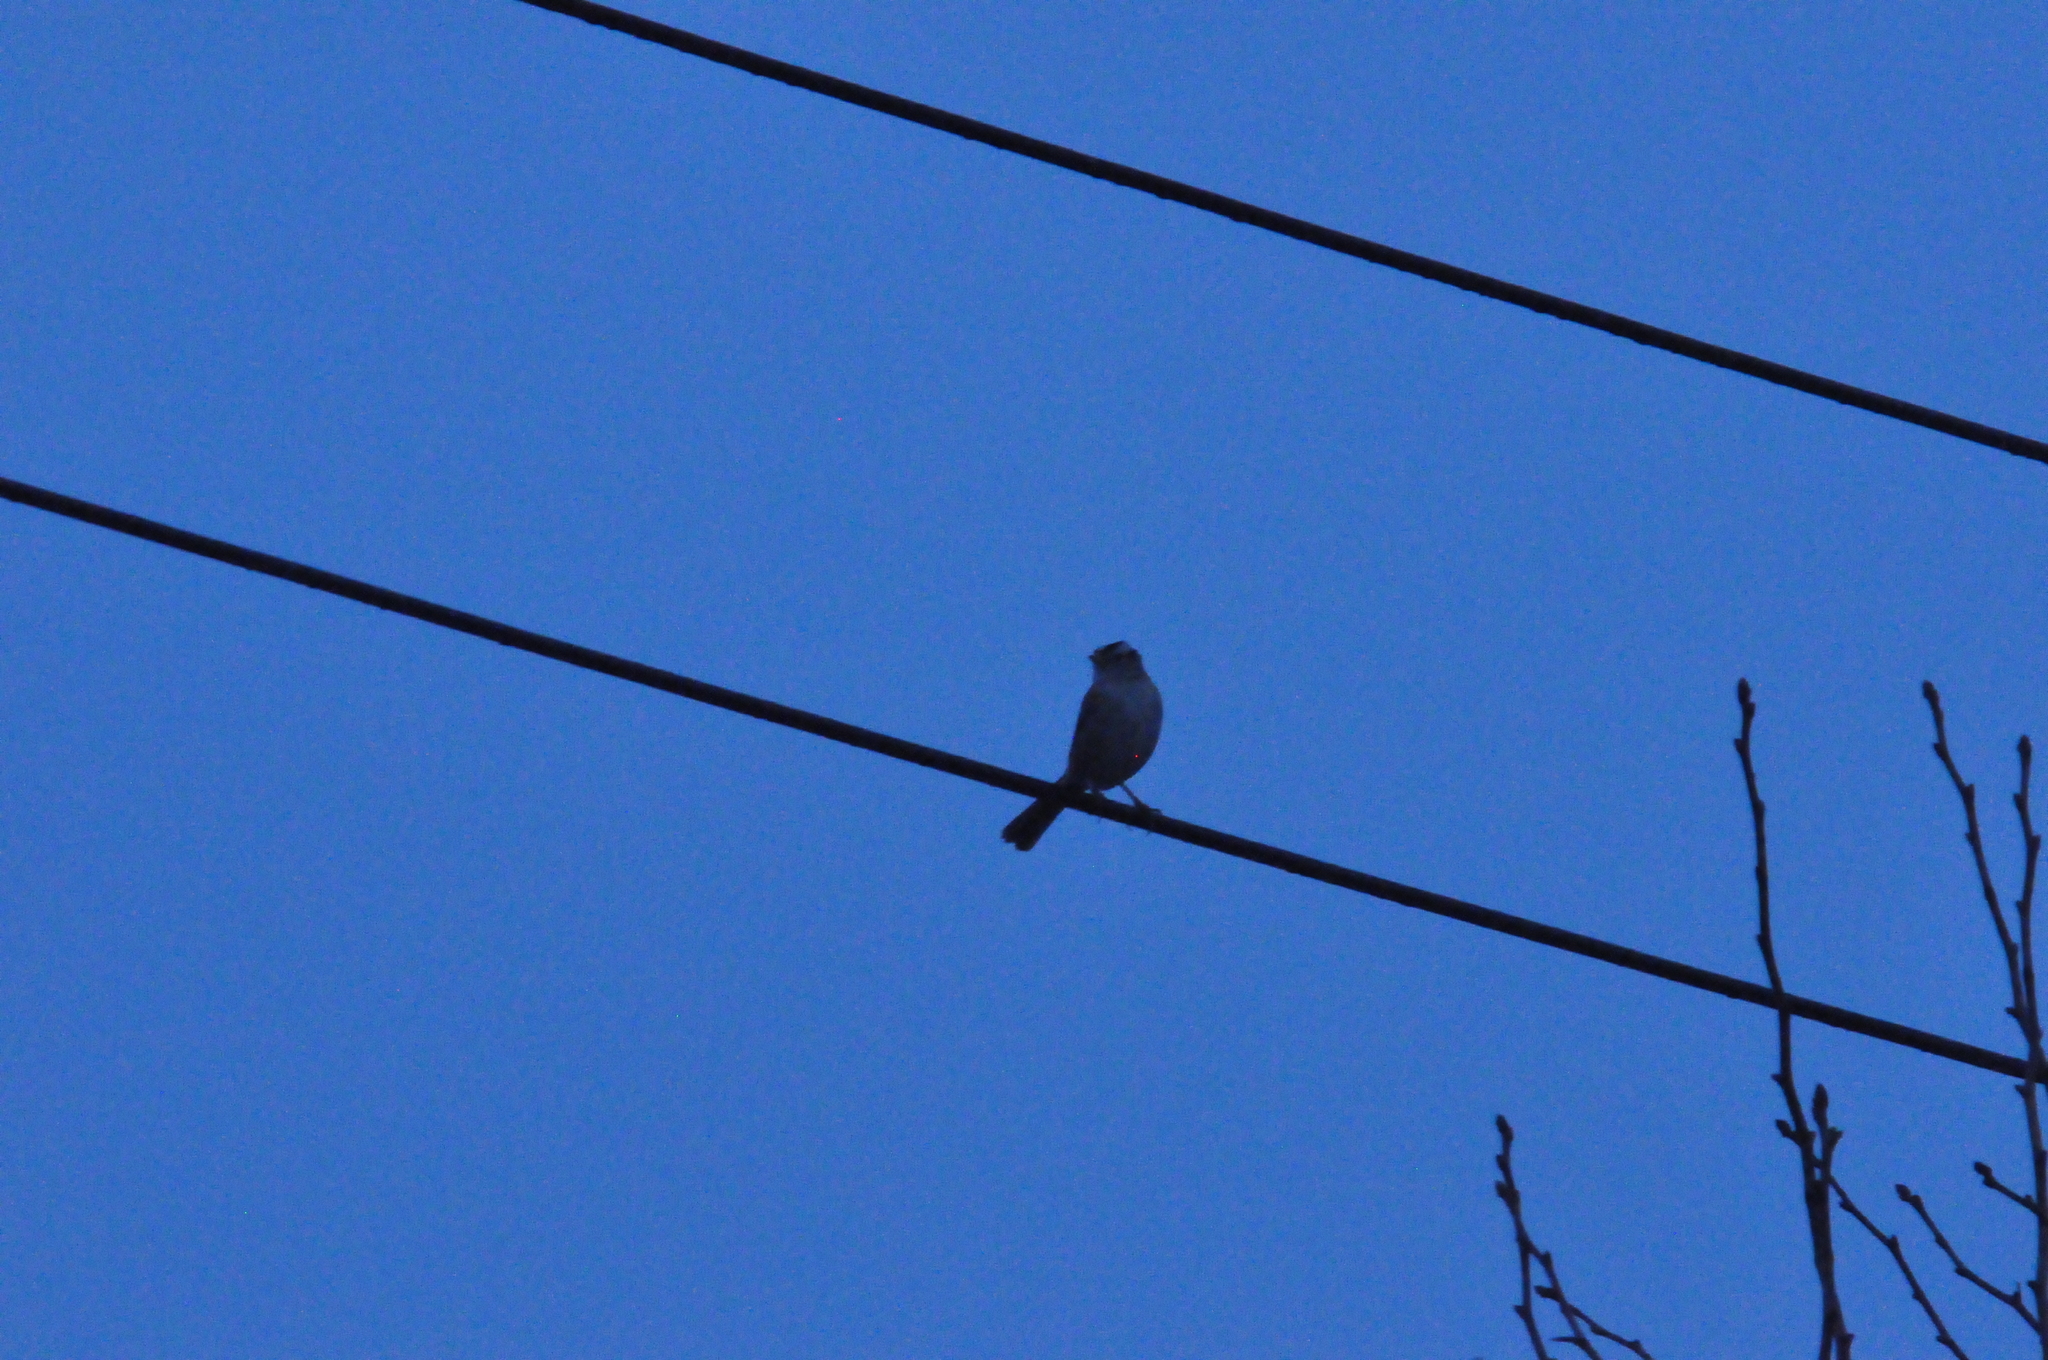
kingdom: Animalia
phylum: Chordata
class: Aves
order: Passeriformes
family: Passerellidae
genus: Zonotrichia
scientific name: Zonotrichia leucophrys
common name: White-crowned sparrow
